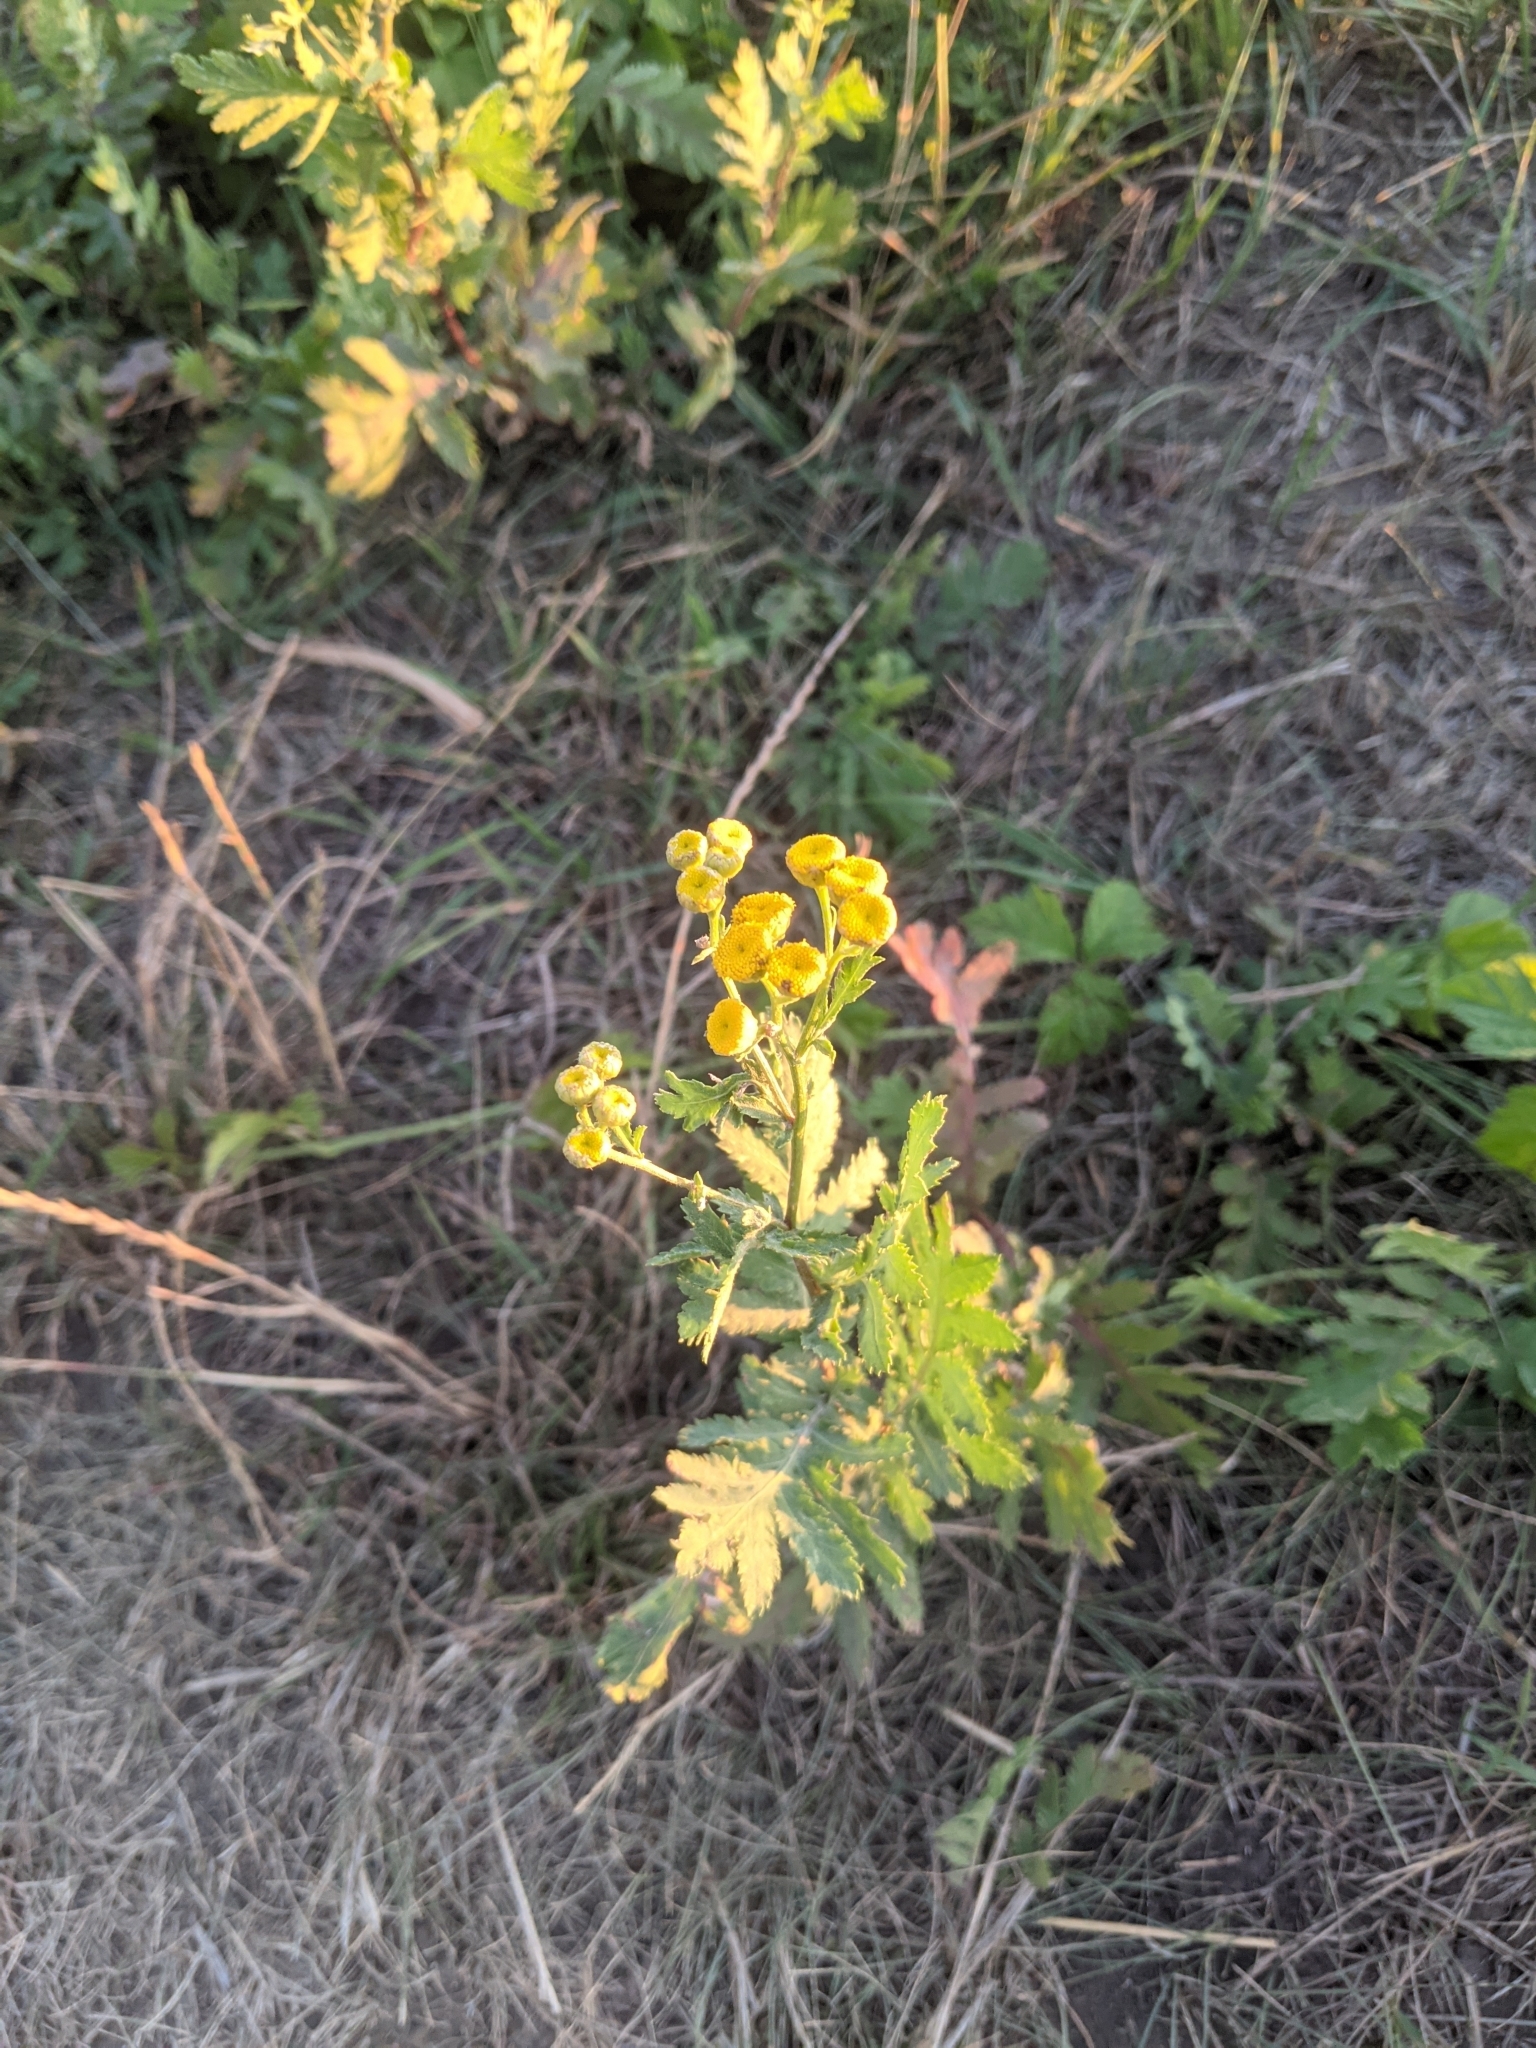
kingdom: Plantae
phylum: Tracheophyta
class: Magnoliopsida
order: Asterales
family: Asteraceae
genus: Tanacetum
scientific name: Tanacetum vulgare
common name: Common tansy
